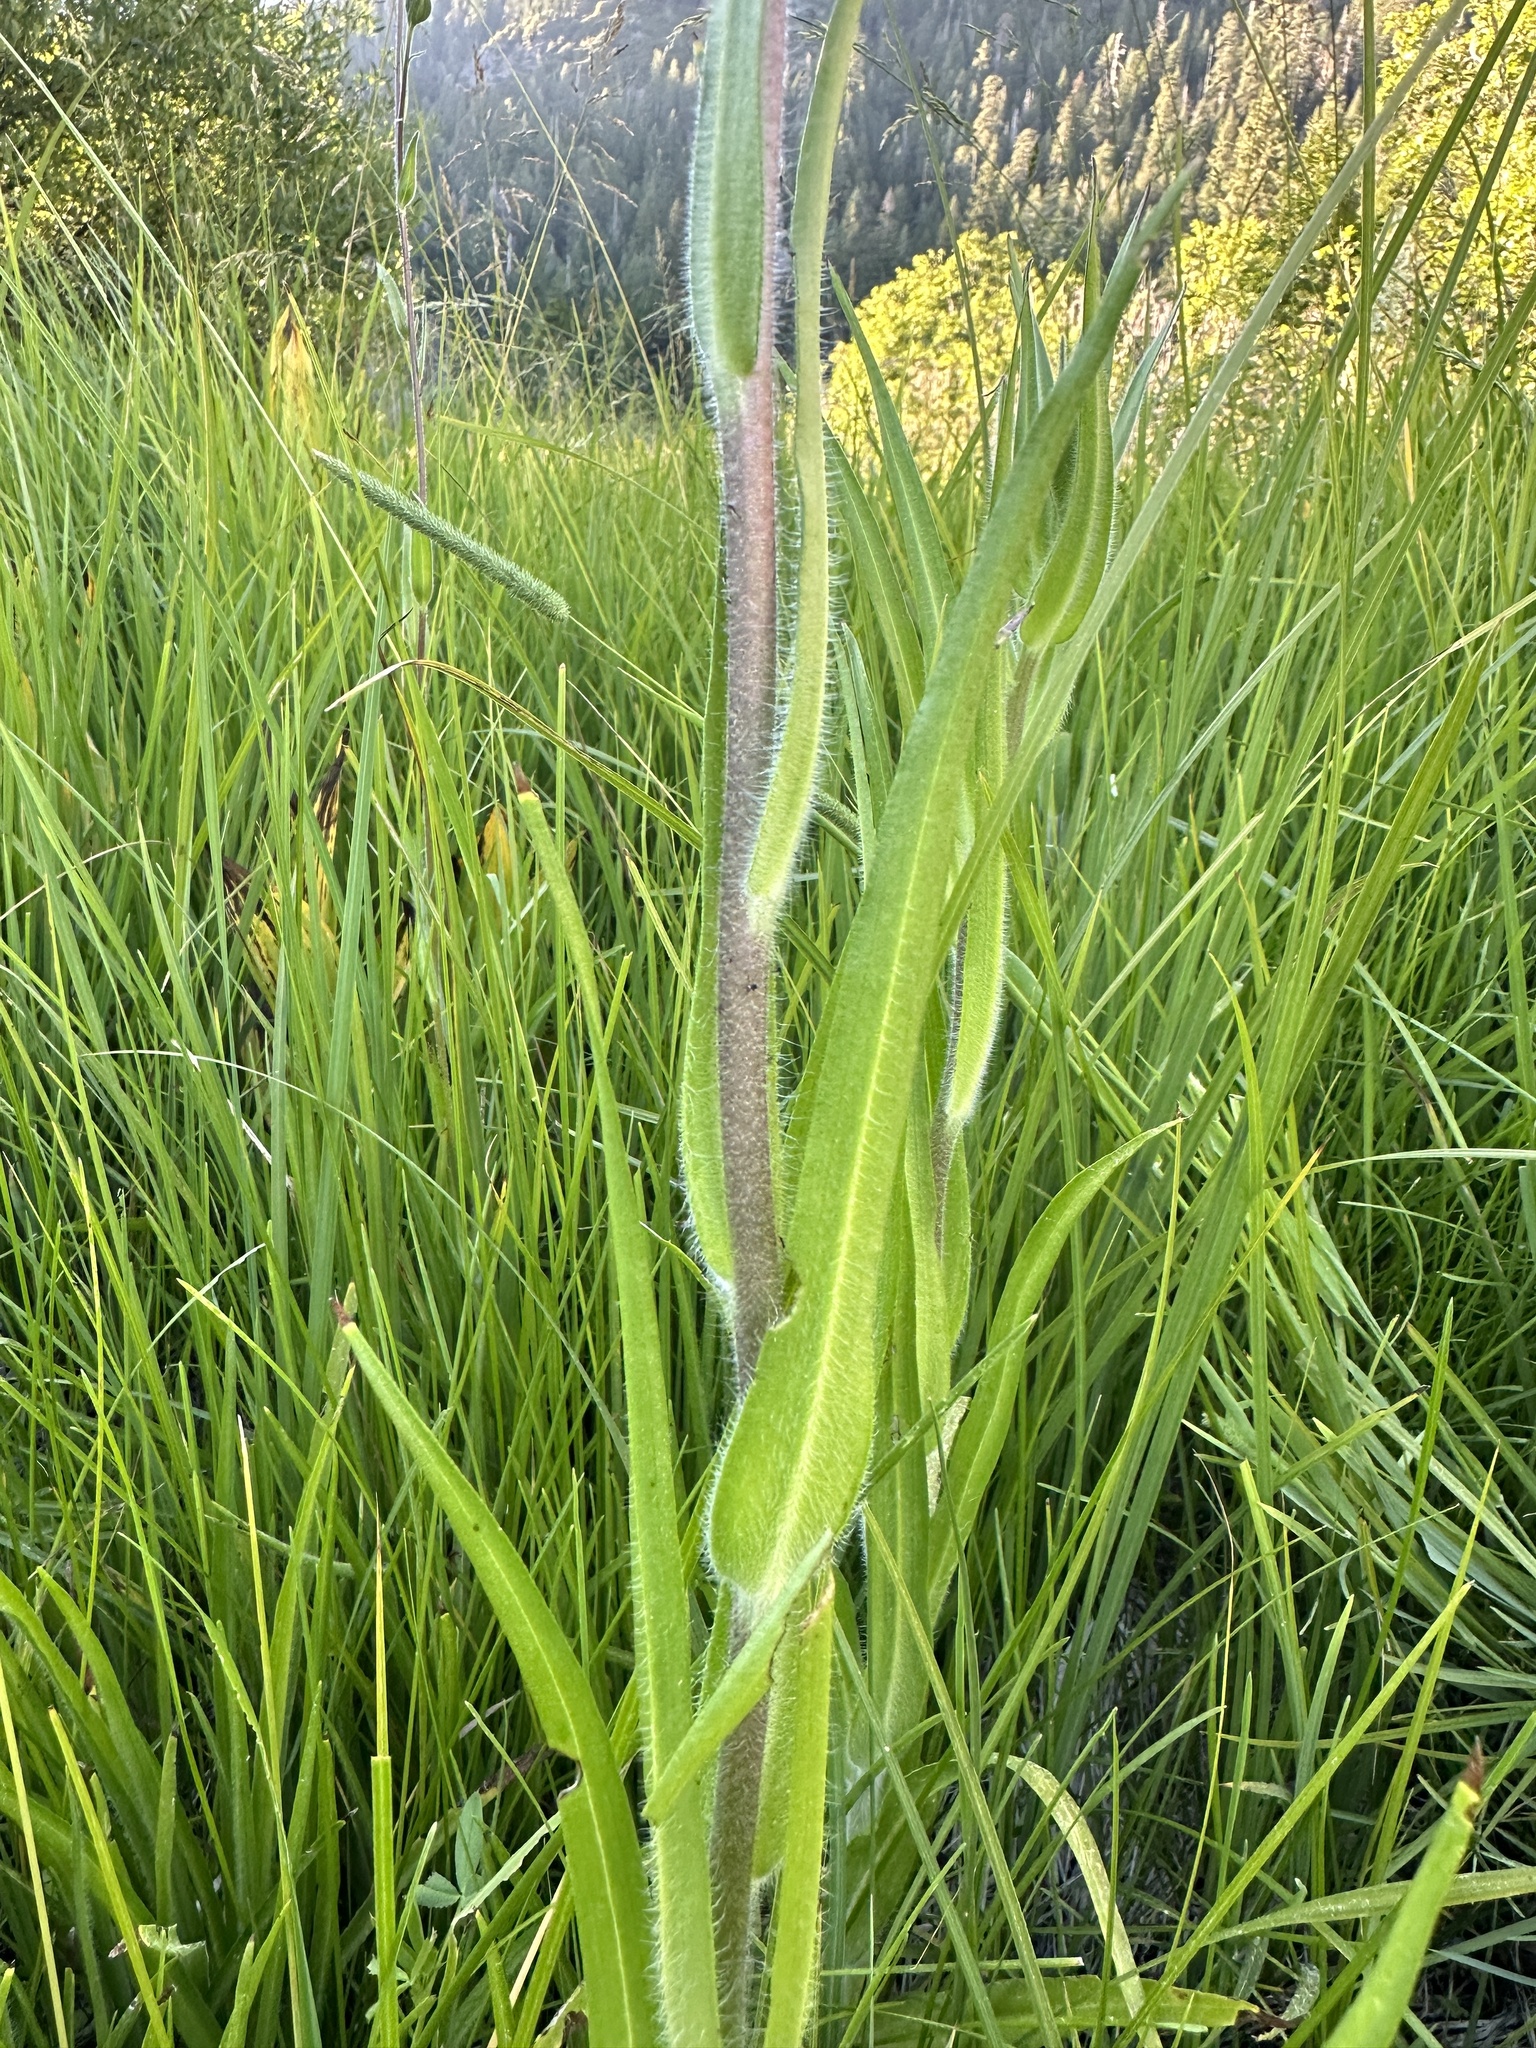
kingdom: Plantae
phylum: Tracheophyta
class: Magnoliopsida
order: Asterales
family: Asteraceae
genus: Kyhosia
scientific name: Kyhosia bolanderi
